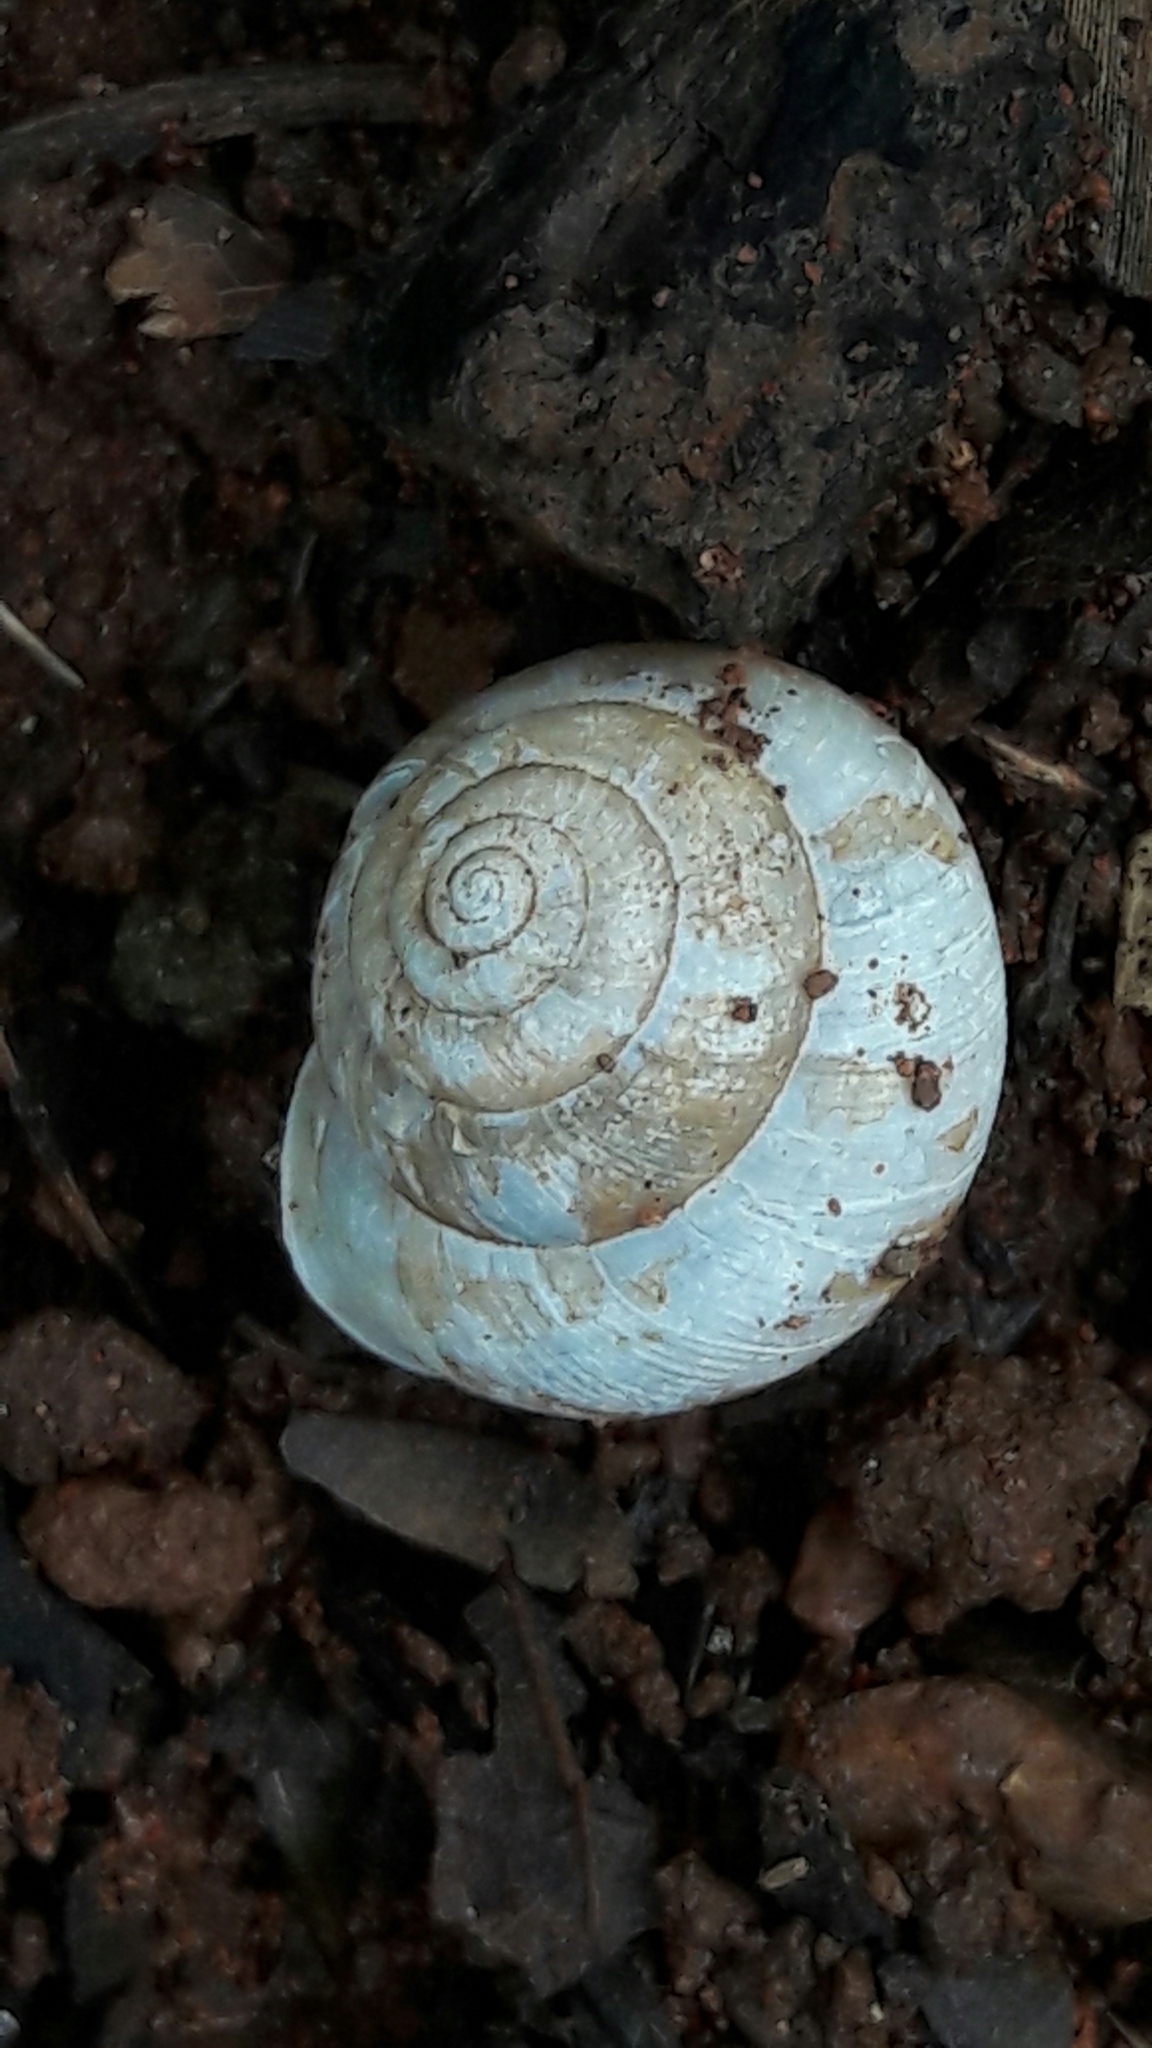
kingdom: Animalia
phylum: Mollusca
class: Gastropoda
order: Stylommatophora
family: Camaenidae
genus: Bradybaena
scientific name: Bradybaena similaris
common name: Asian trampsnail
